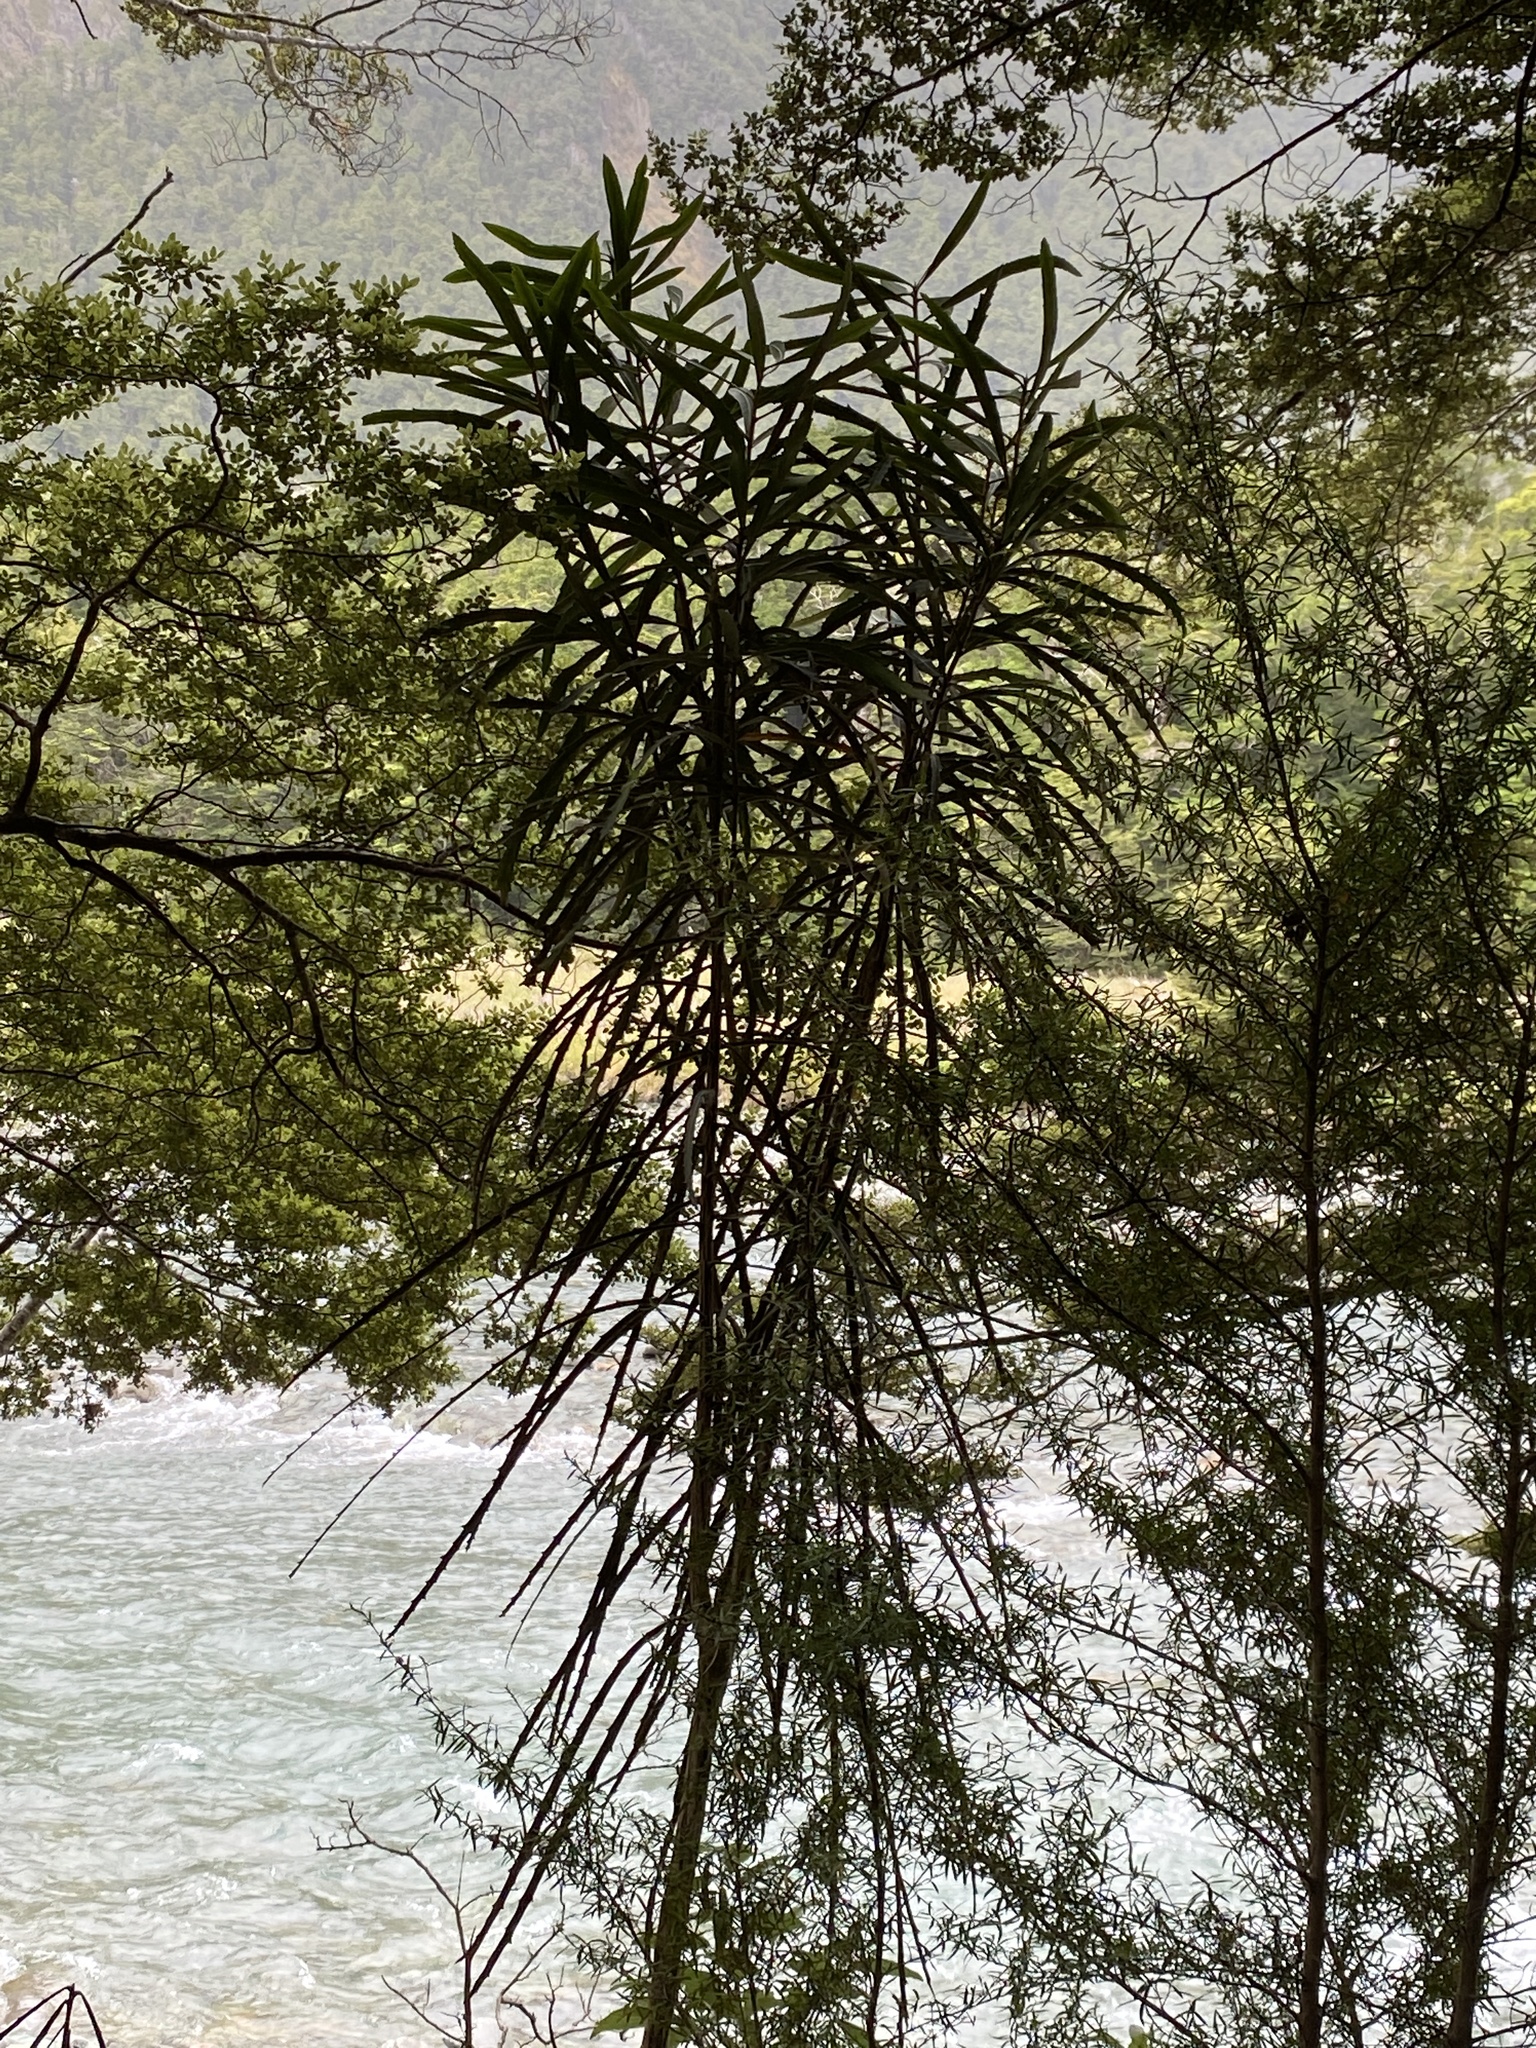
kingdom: Plantae
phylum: Tracheophyta
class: Magnoliopsida
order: Apiales
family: Araliaceae
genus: Pseudopanax
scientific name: Pseudopanax crassifolius
